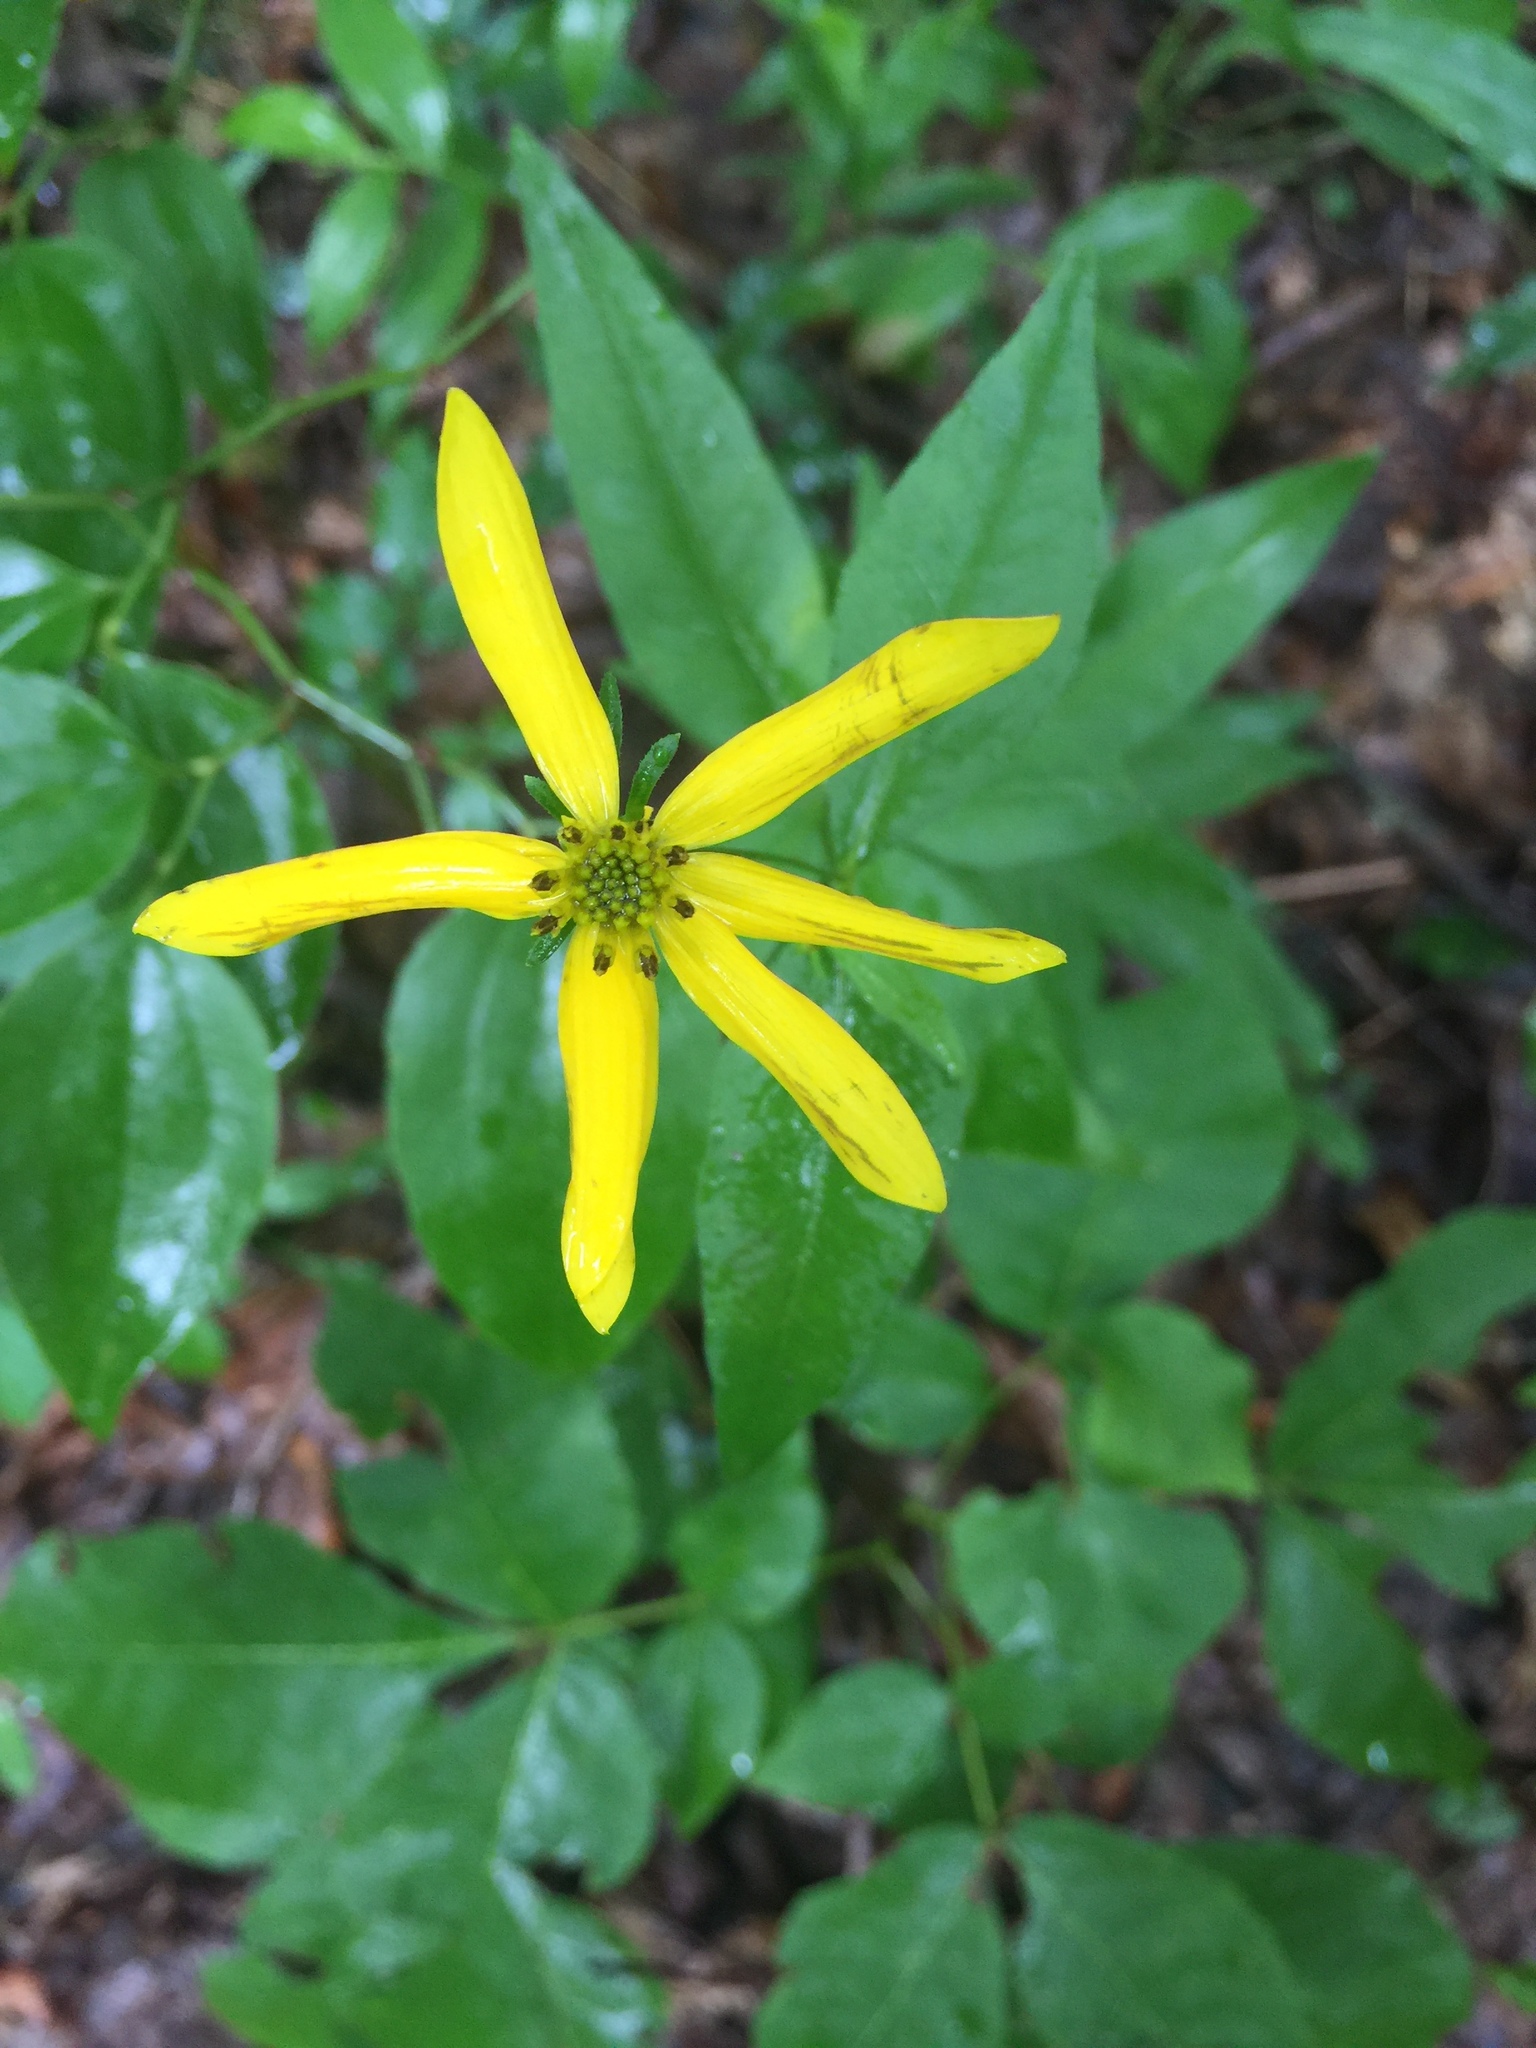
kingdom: Plantae
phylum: Tracheophyta
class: Magnoliopsida
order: Asterales
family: Asteraceae
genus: Coreopsis
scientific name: Coreopsis major
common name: Forest tickseed
